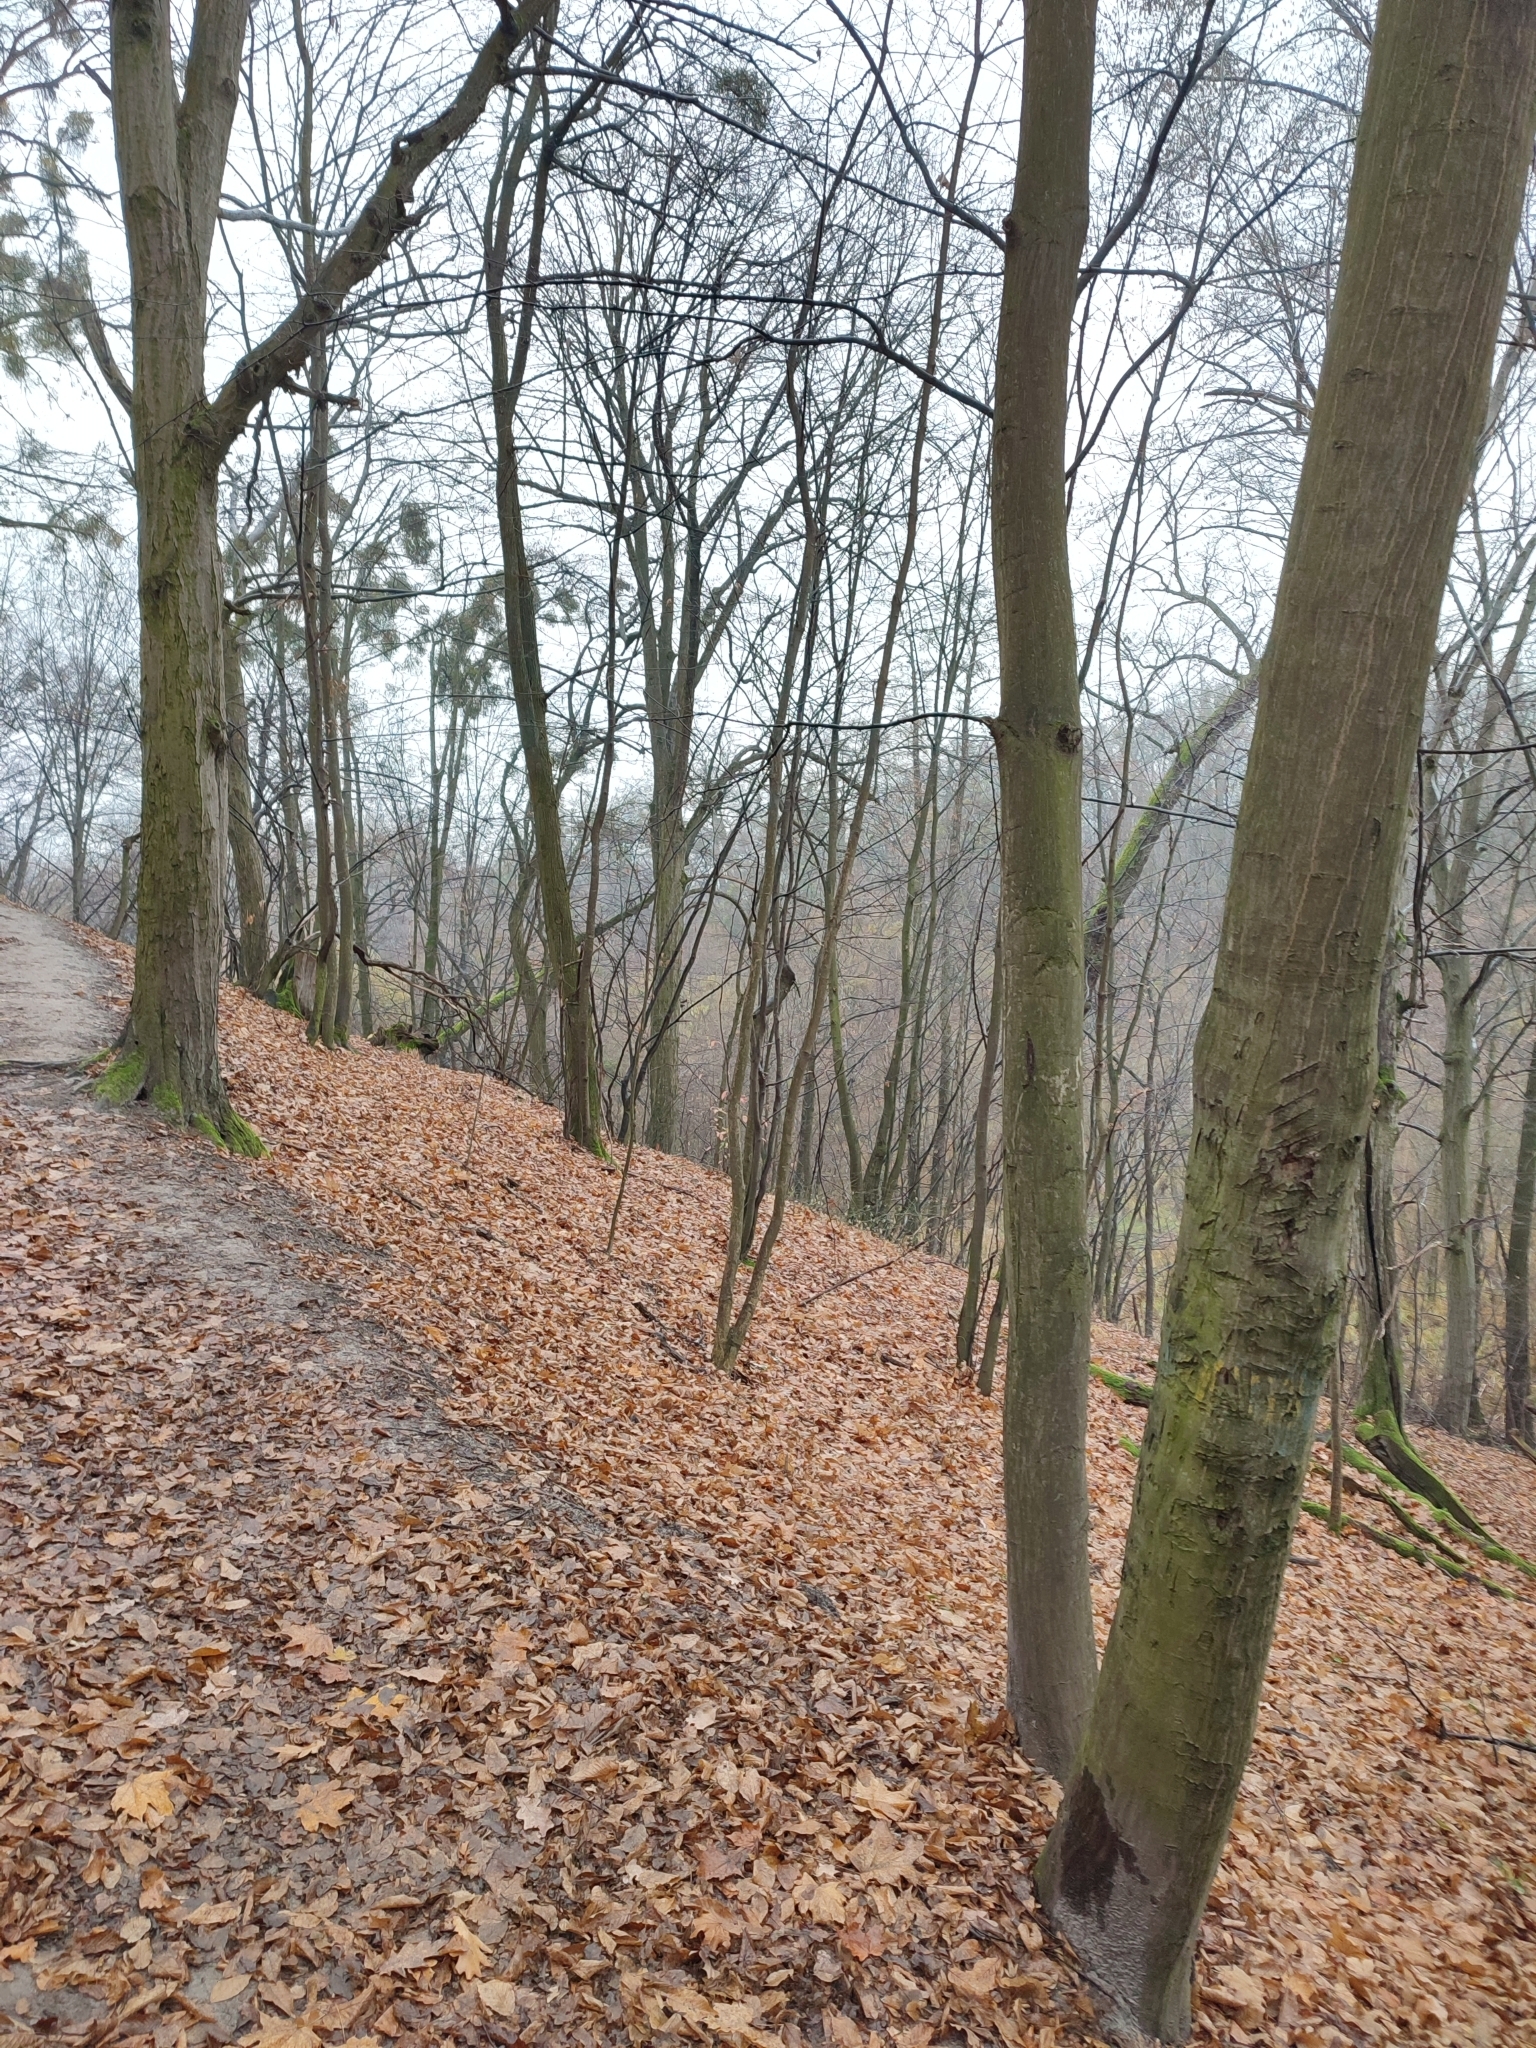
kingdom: Plantae
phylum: Tracheophyta
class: Magnoliopsida
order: Fagales
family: Betulaceae
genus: Carpinus
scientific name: Carpinus betulus
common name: Hornbeam
